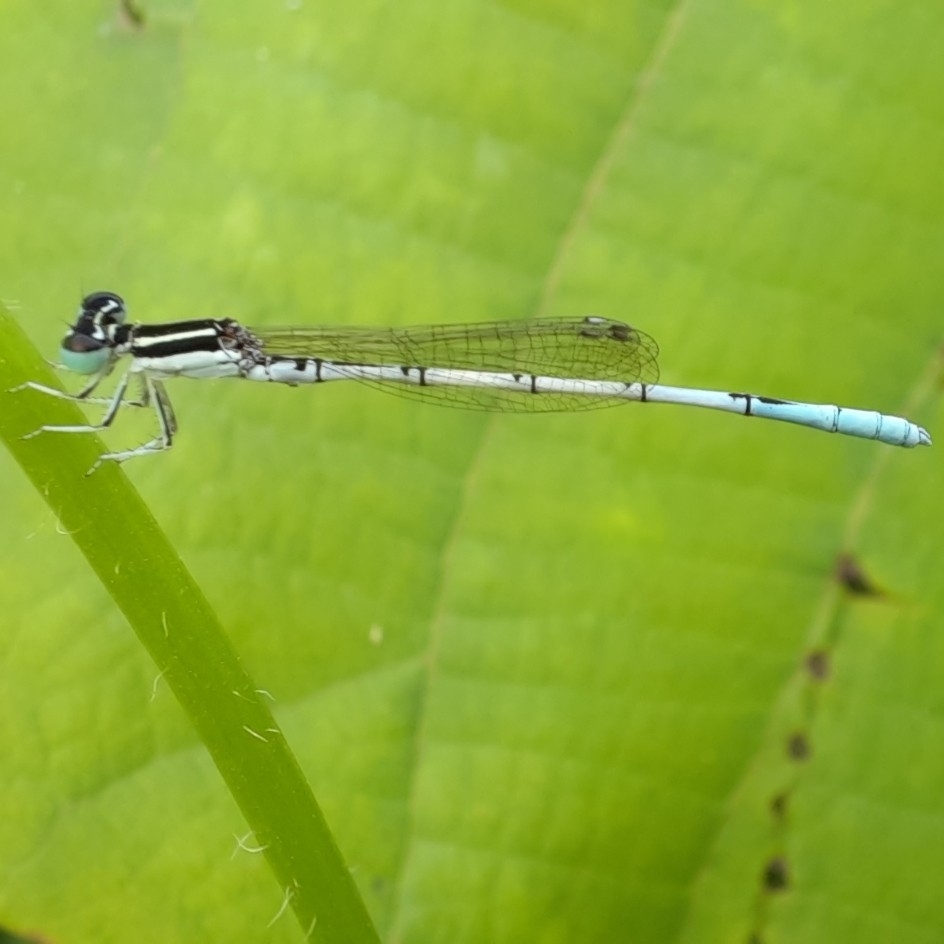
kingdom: Animalia
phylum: Arthropoda
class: Insecta
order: Odonata
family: Coenagrionidae
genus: Agriocnemis
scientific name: Agriocnemis pieris
